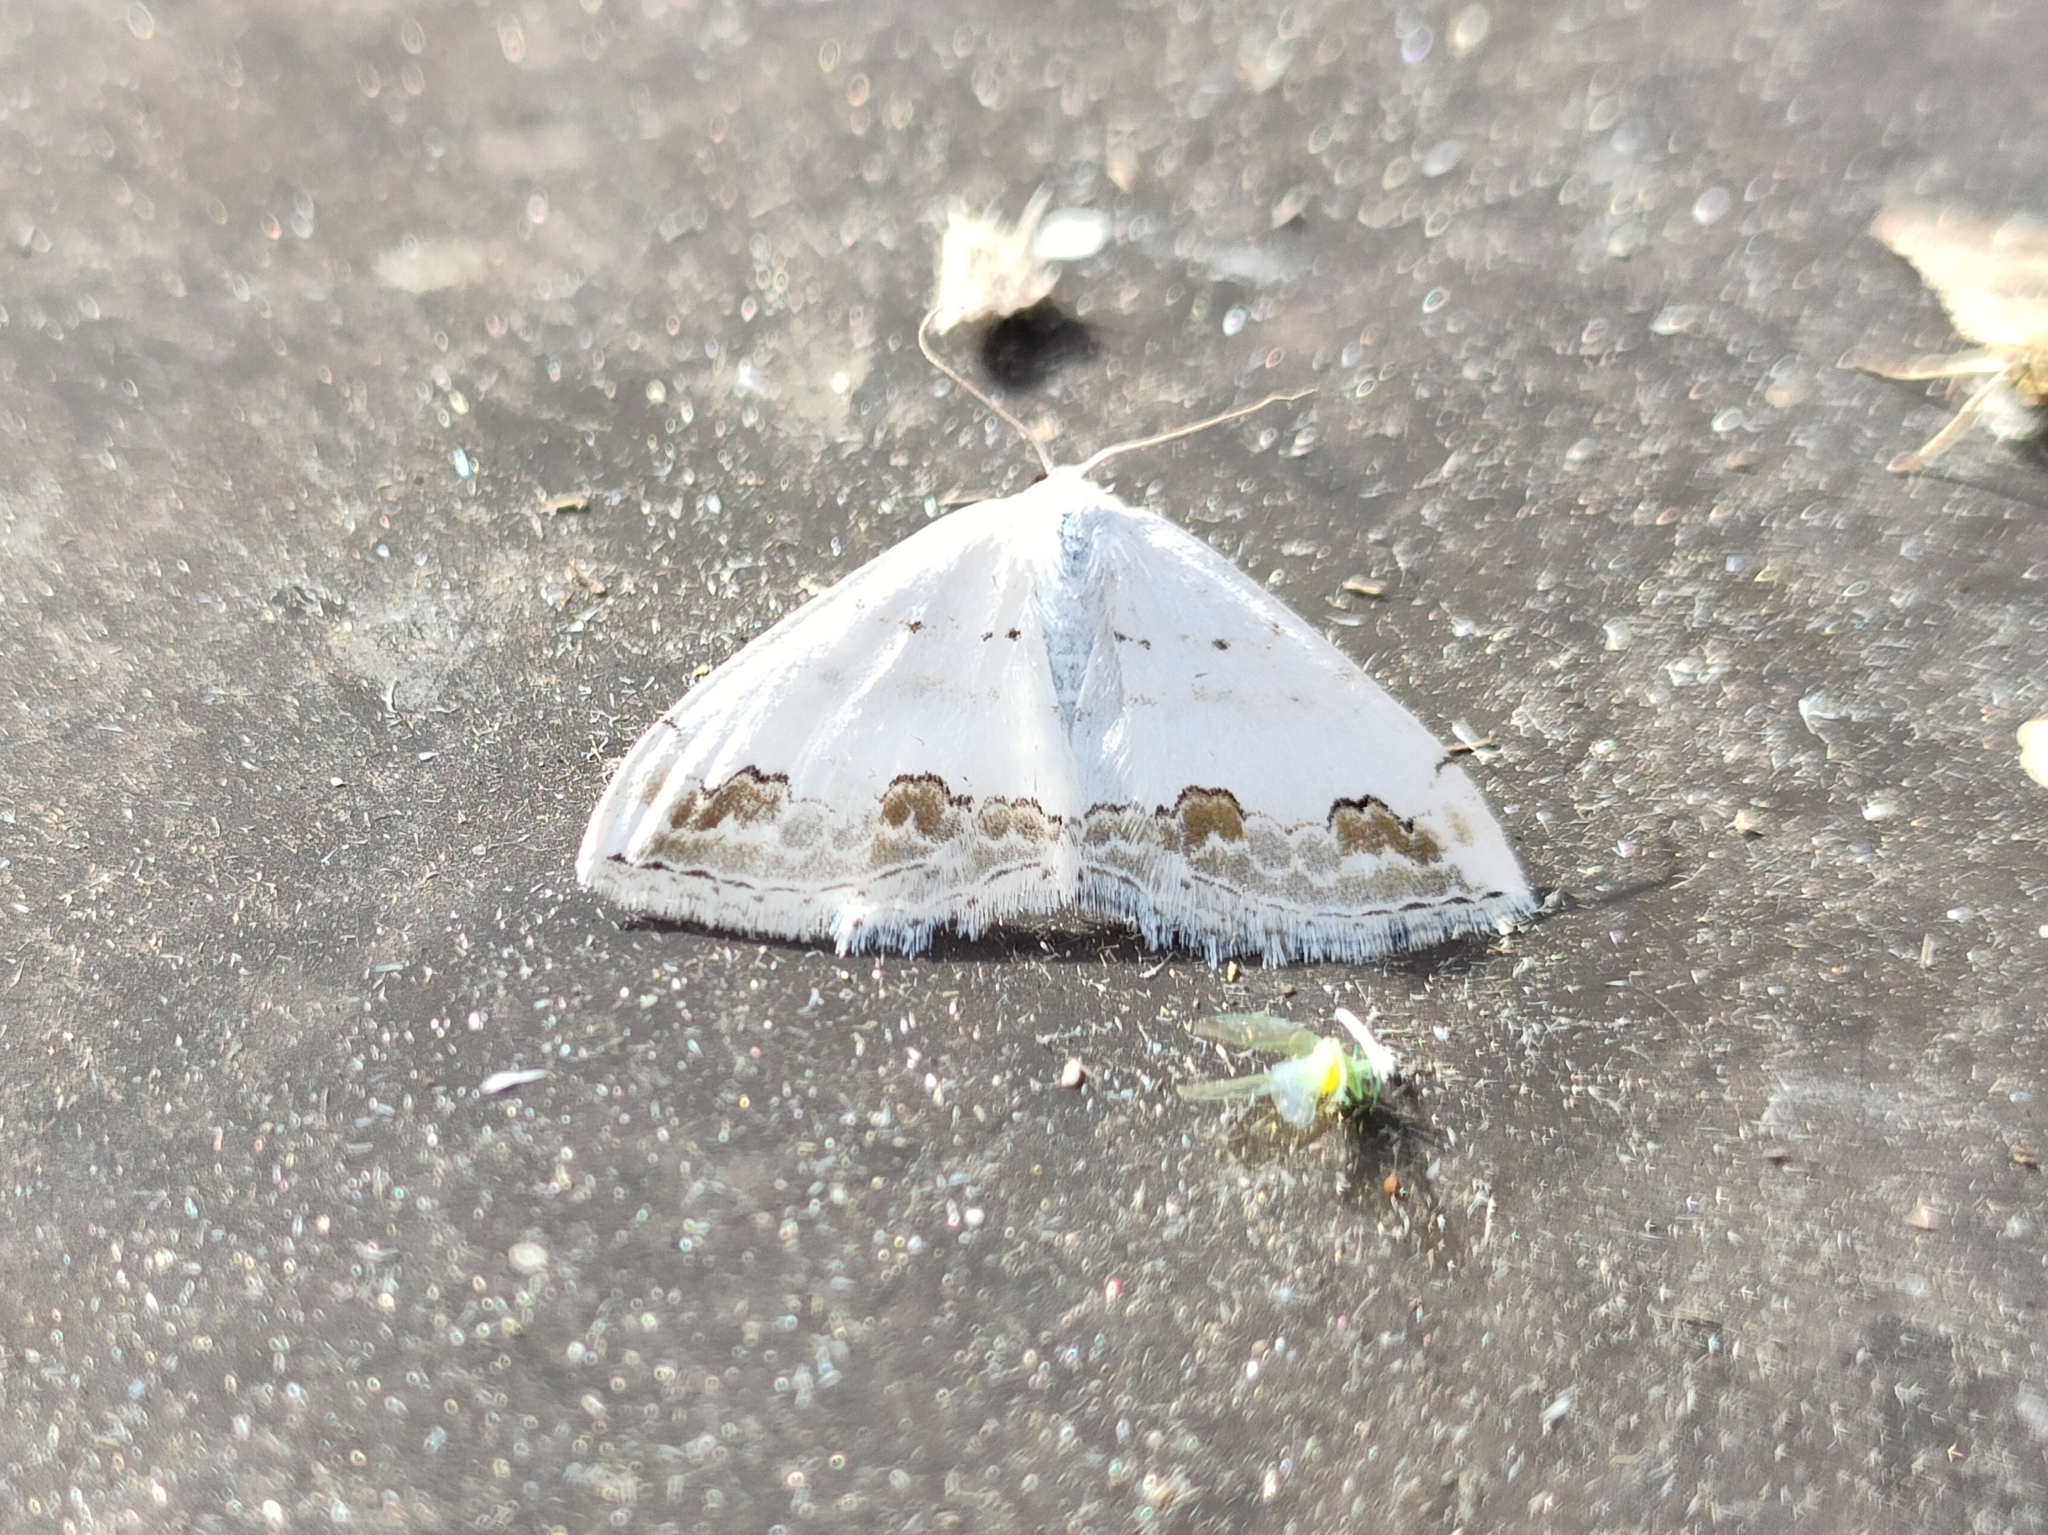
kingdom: Animalia
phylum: Arthropoda
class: Insecta
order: Lepidoptera
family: Geometridae
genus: Scopula
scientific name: Scopula ornata
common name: Lace border
